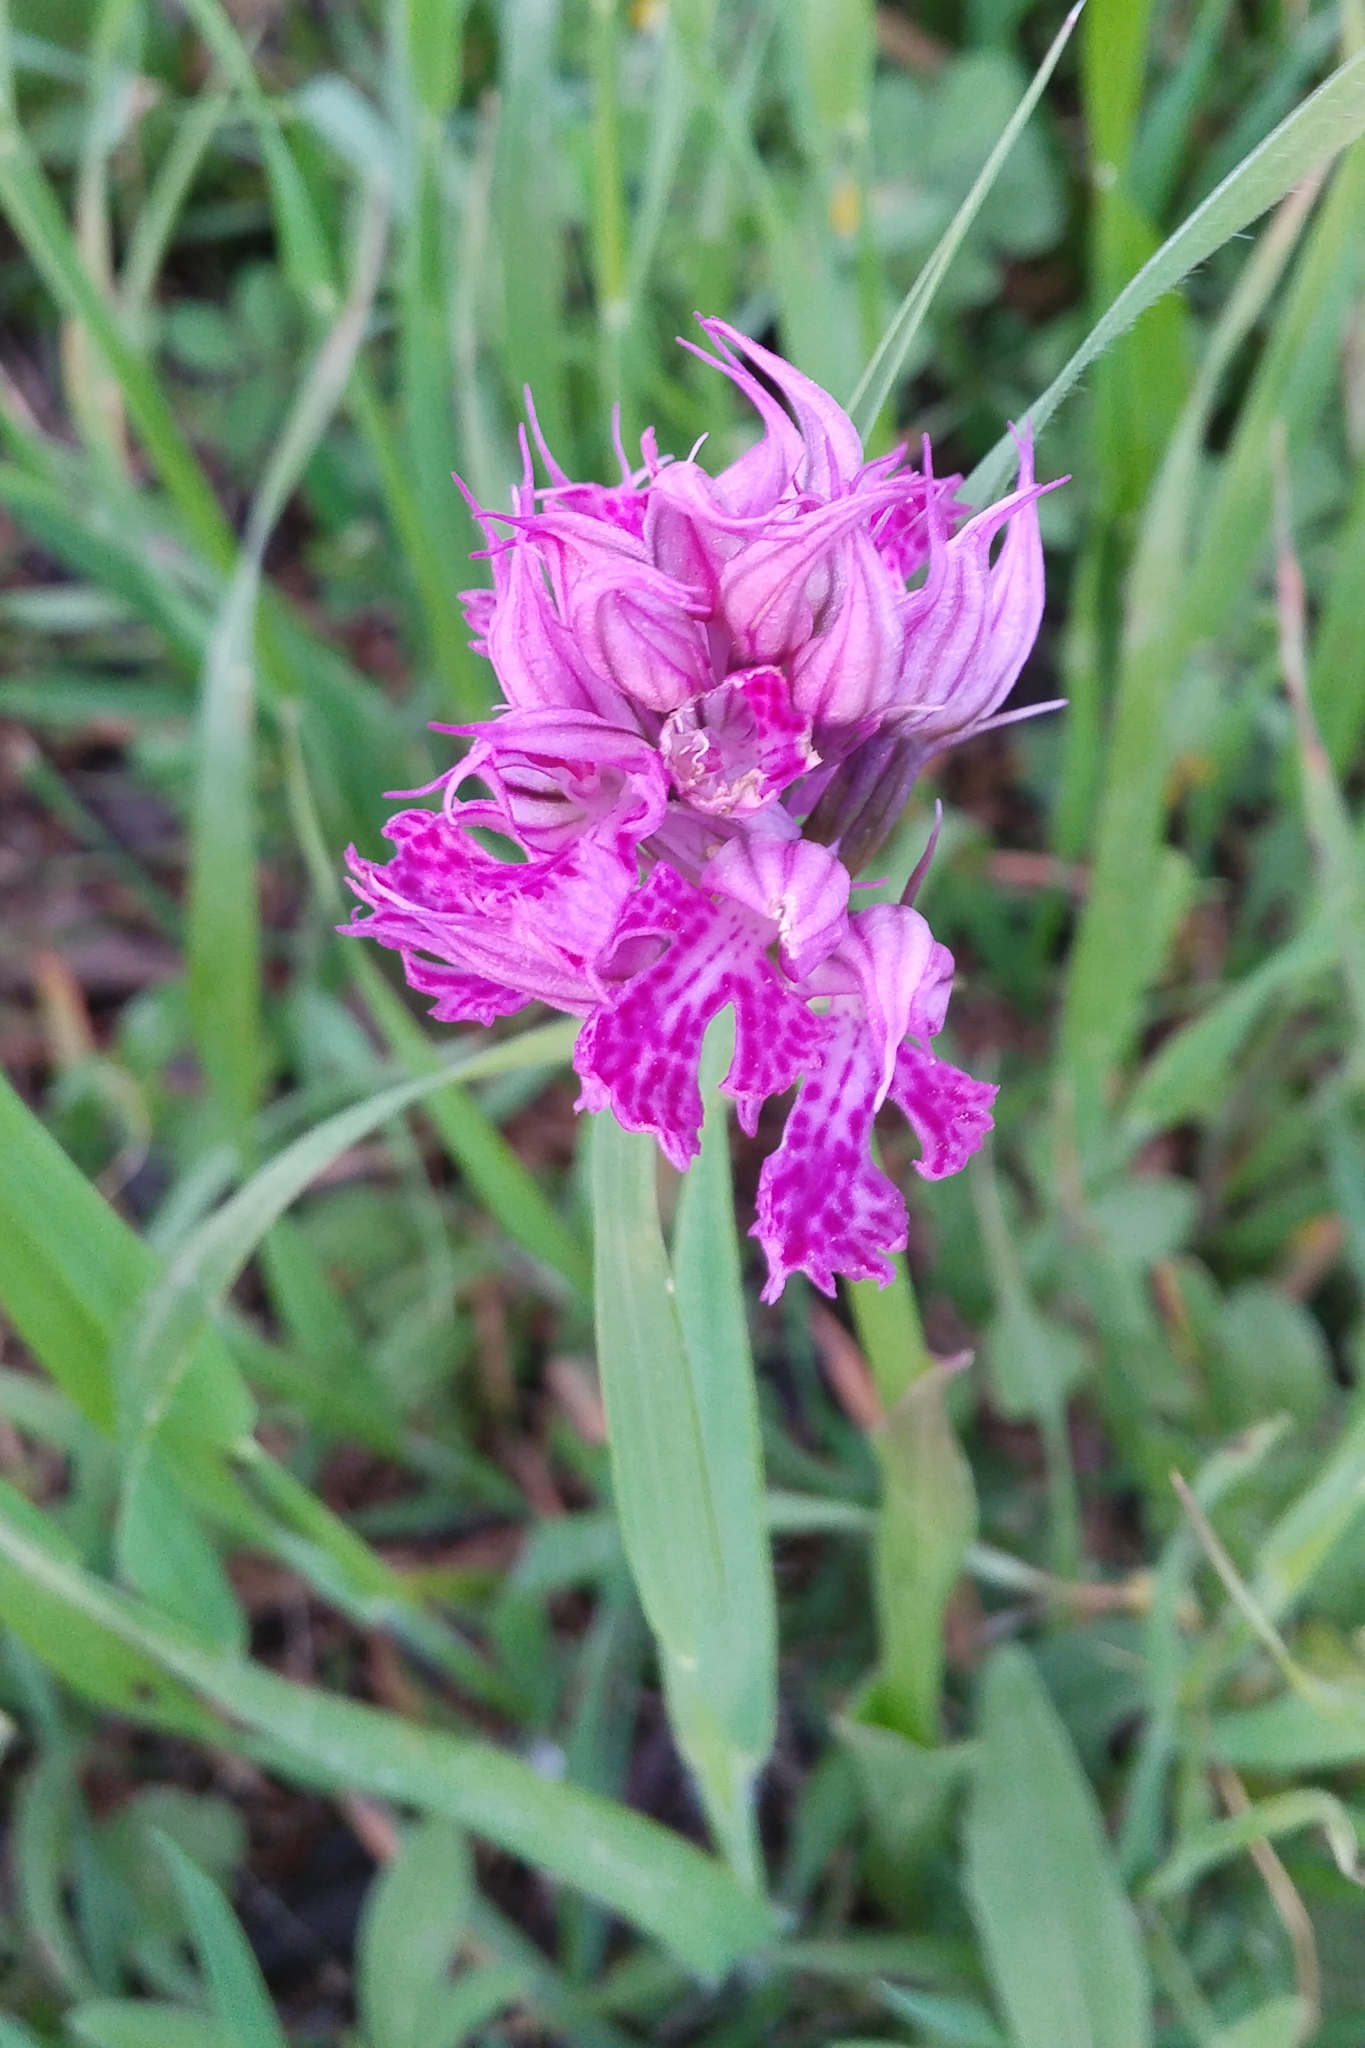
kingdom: Plantae
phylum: Tracheophyta
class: Liliopsida
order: Asparagales
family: Orchidaceae
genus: Neotinea
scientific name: Neotinea tridentata
